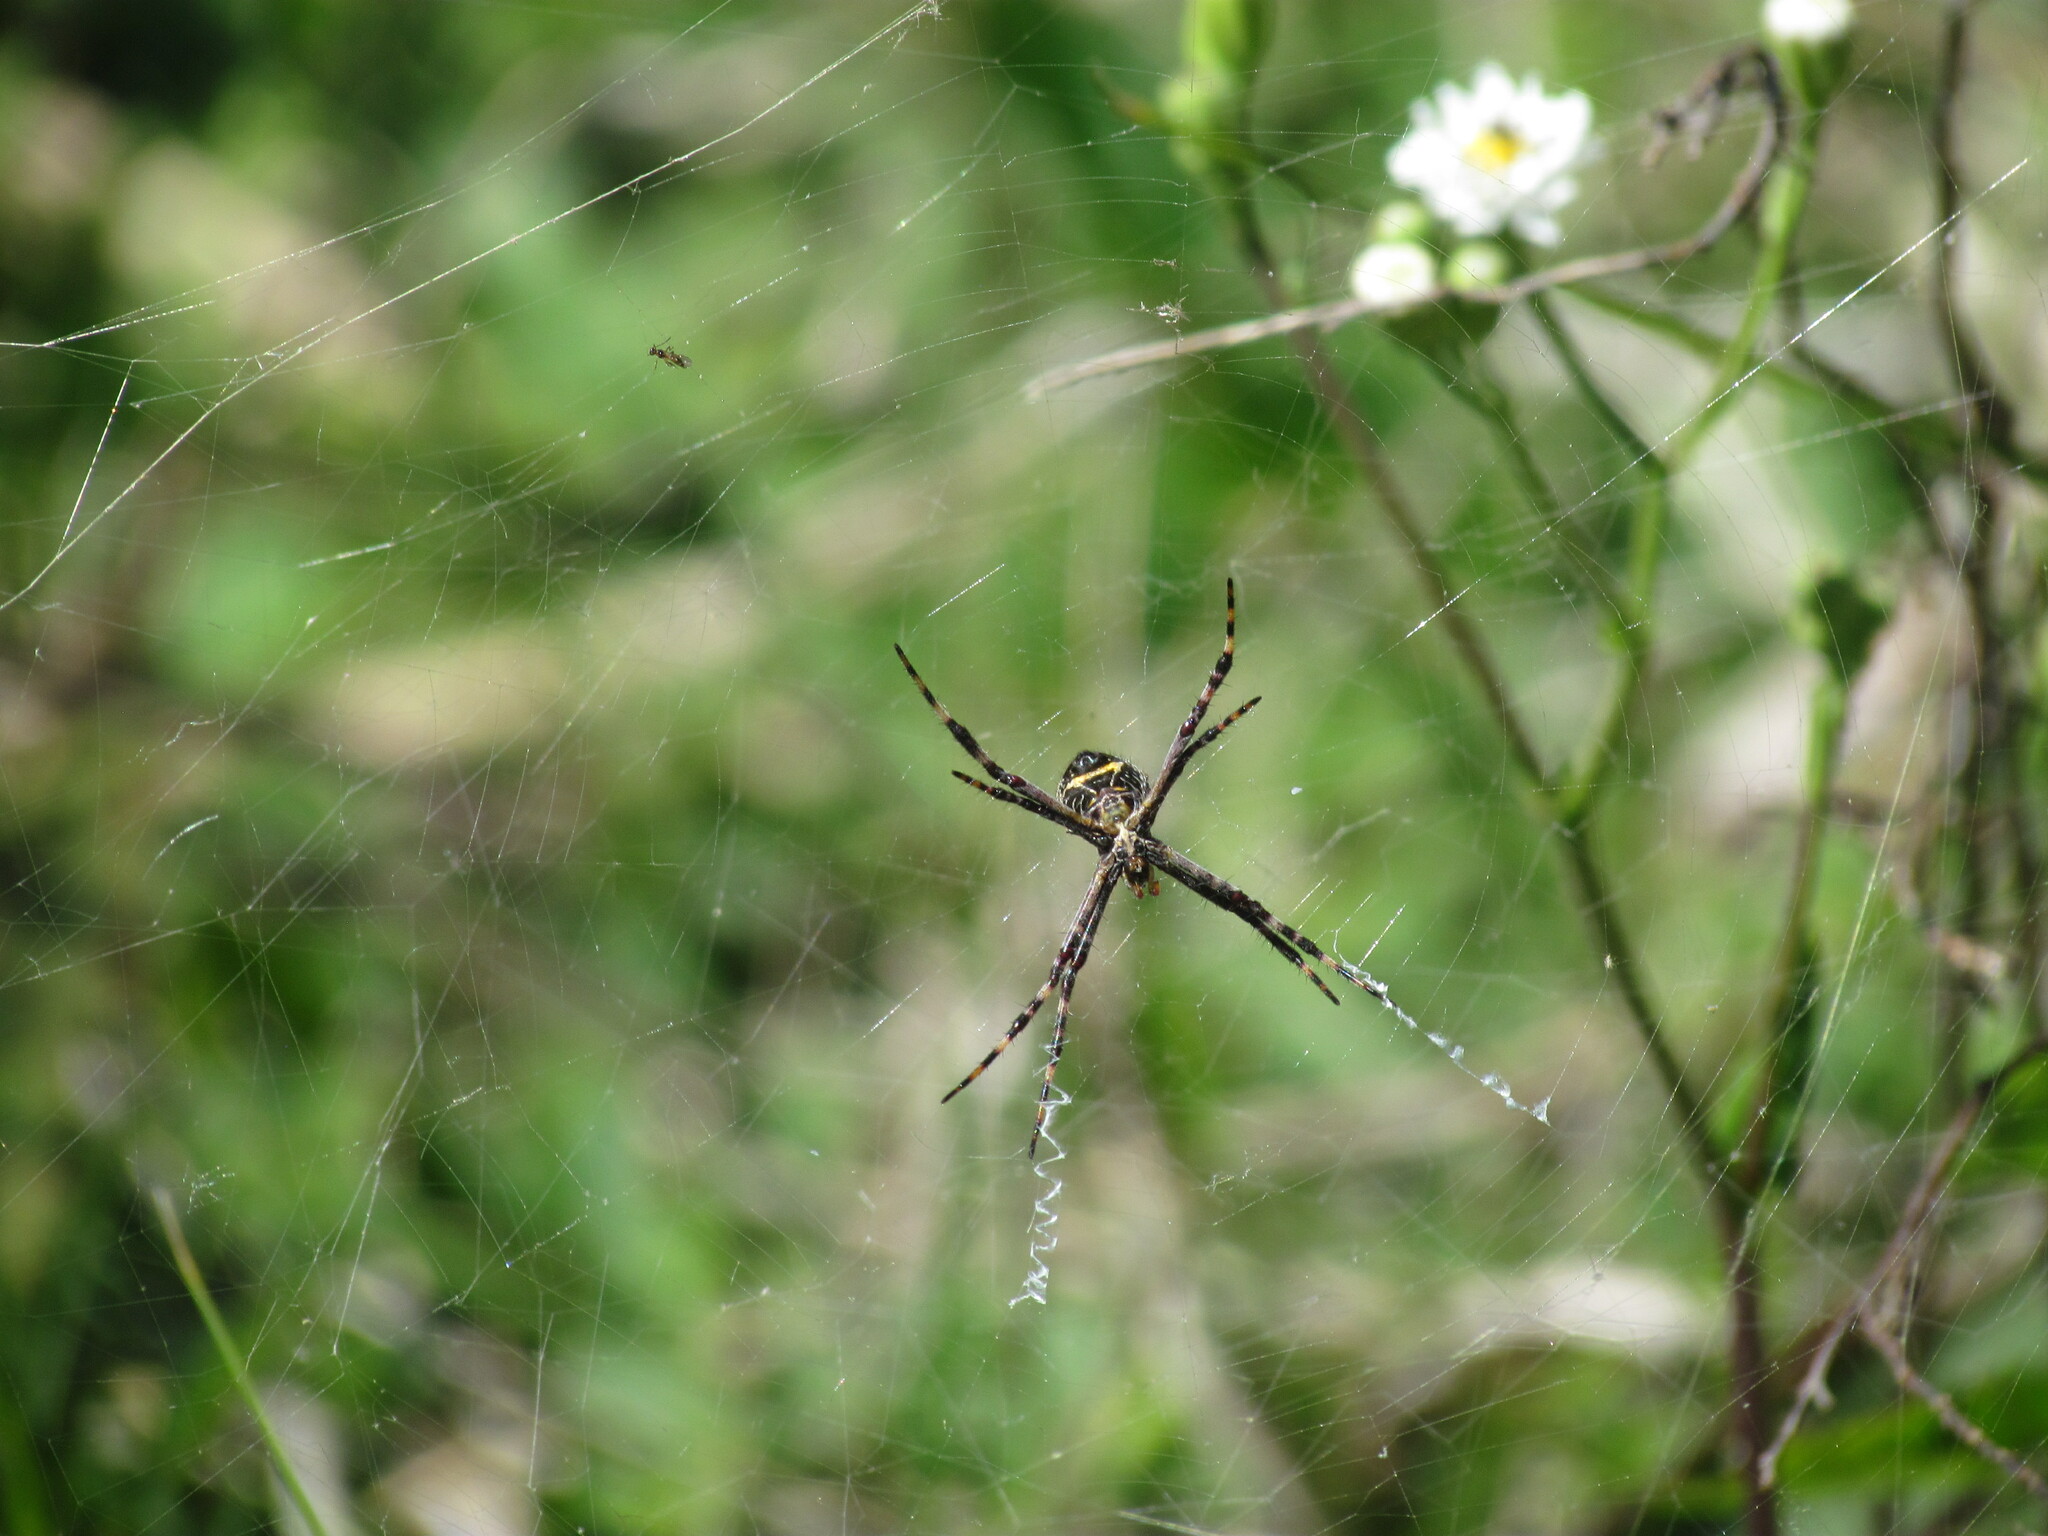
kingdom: Animalia
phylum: Arthropoda
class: Arachnida
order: Araneae
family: Araneidae
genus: Argiope
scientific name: Argiope argentata
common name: Orb weavers
